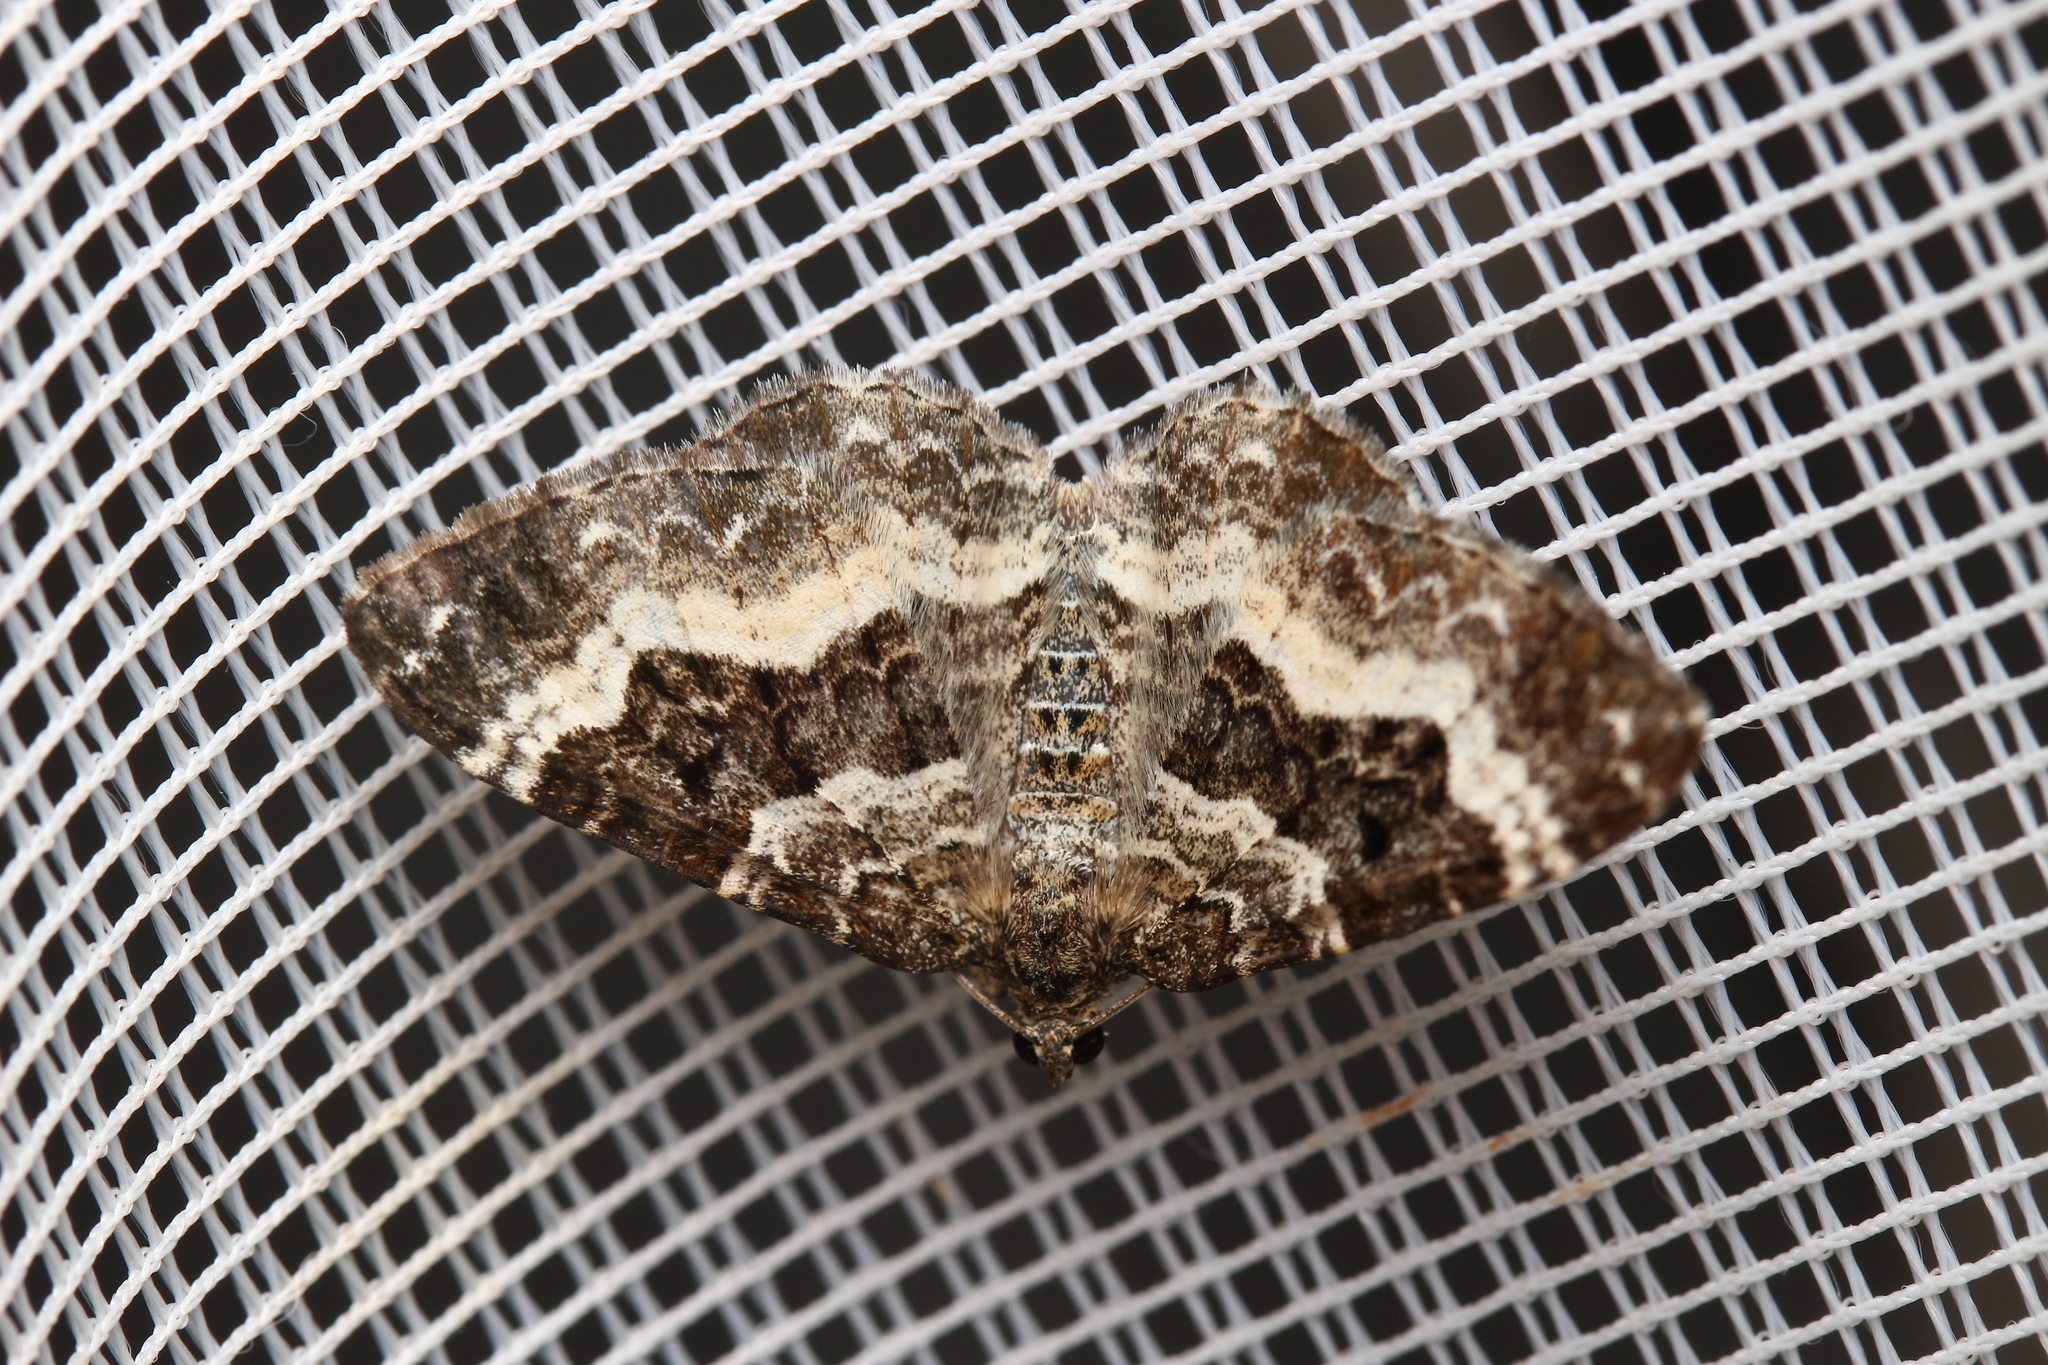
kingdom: Animalia
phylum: Arthropoda
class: Insecta
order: Lepidoptera
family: Geometridae
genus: Epirrhoe
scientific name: Epirrhoe alternata
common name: Common carpet
